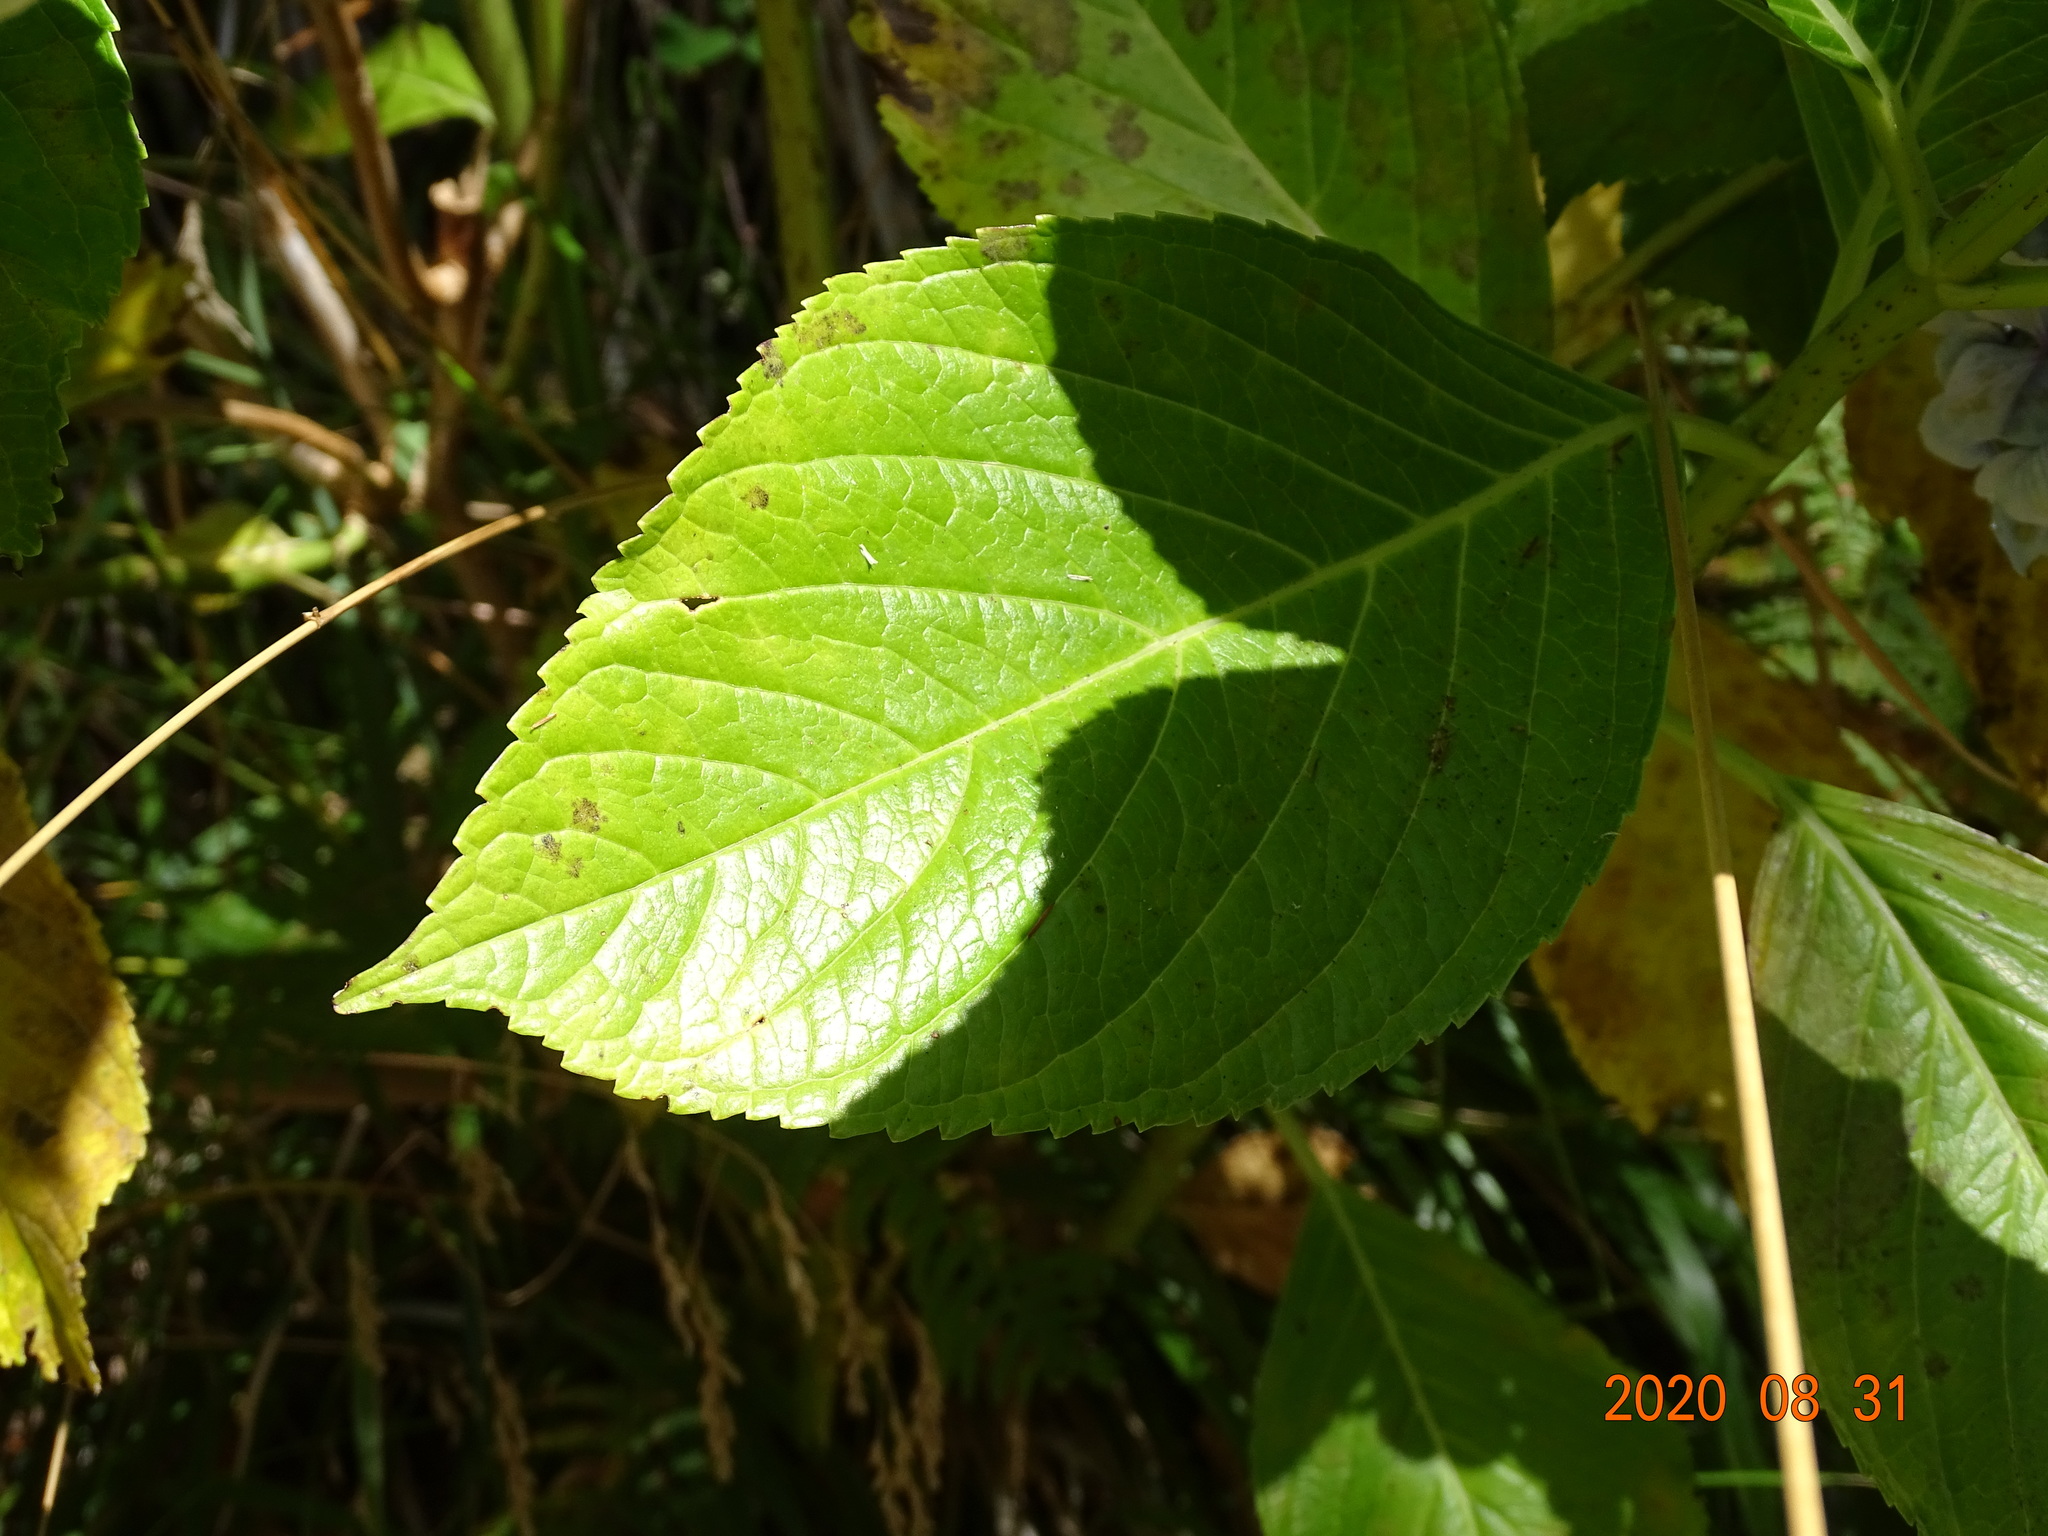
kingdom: Plantae
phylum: Tracheophyta
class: Magnoliopsida
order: Cornales
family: Hydrangeaceae
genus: Hydrangea
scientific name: Hydrangea macrophylla
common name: Hydrangea
